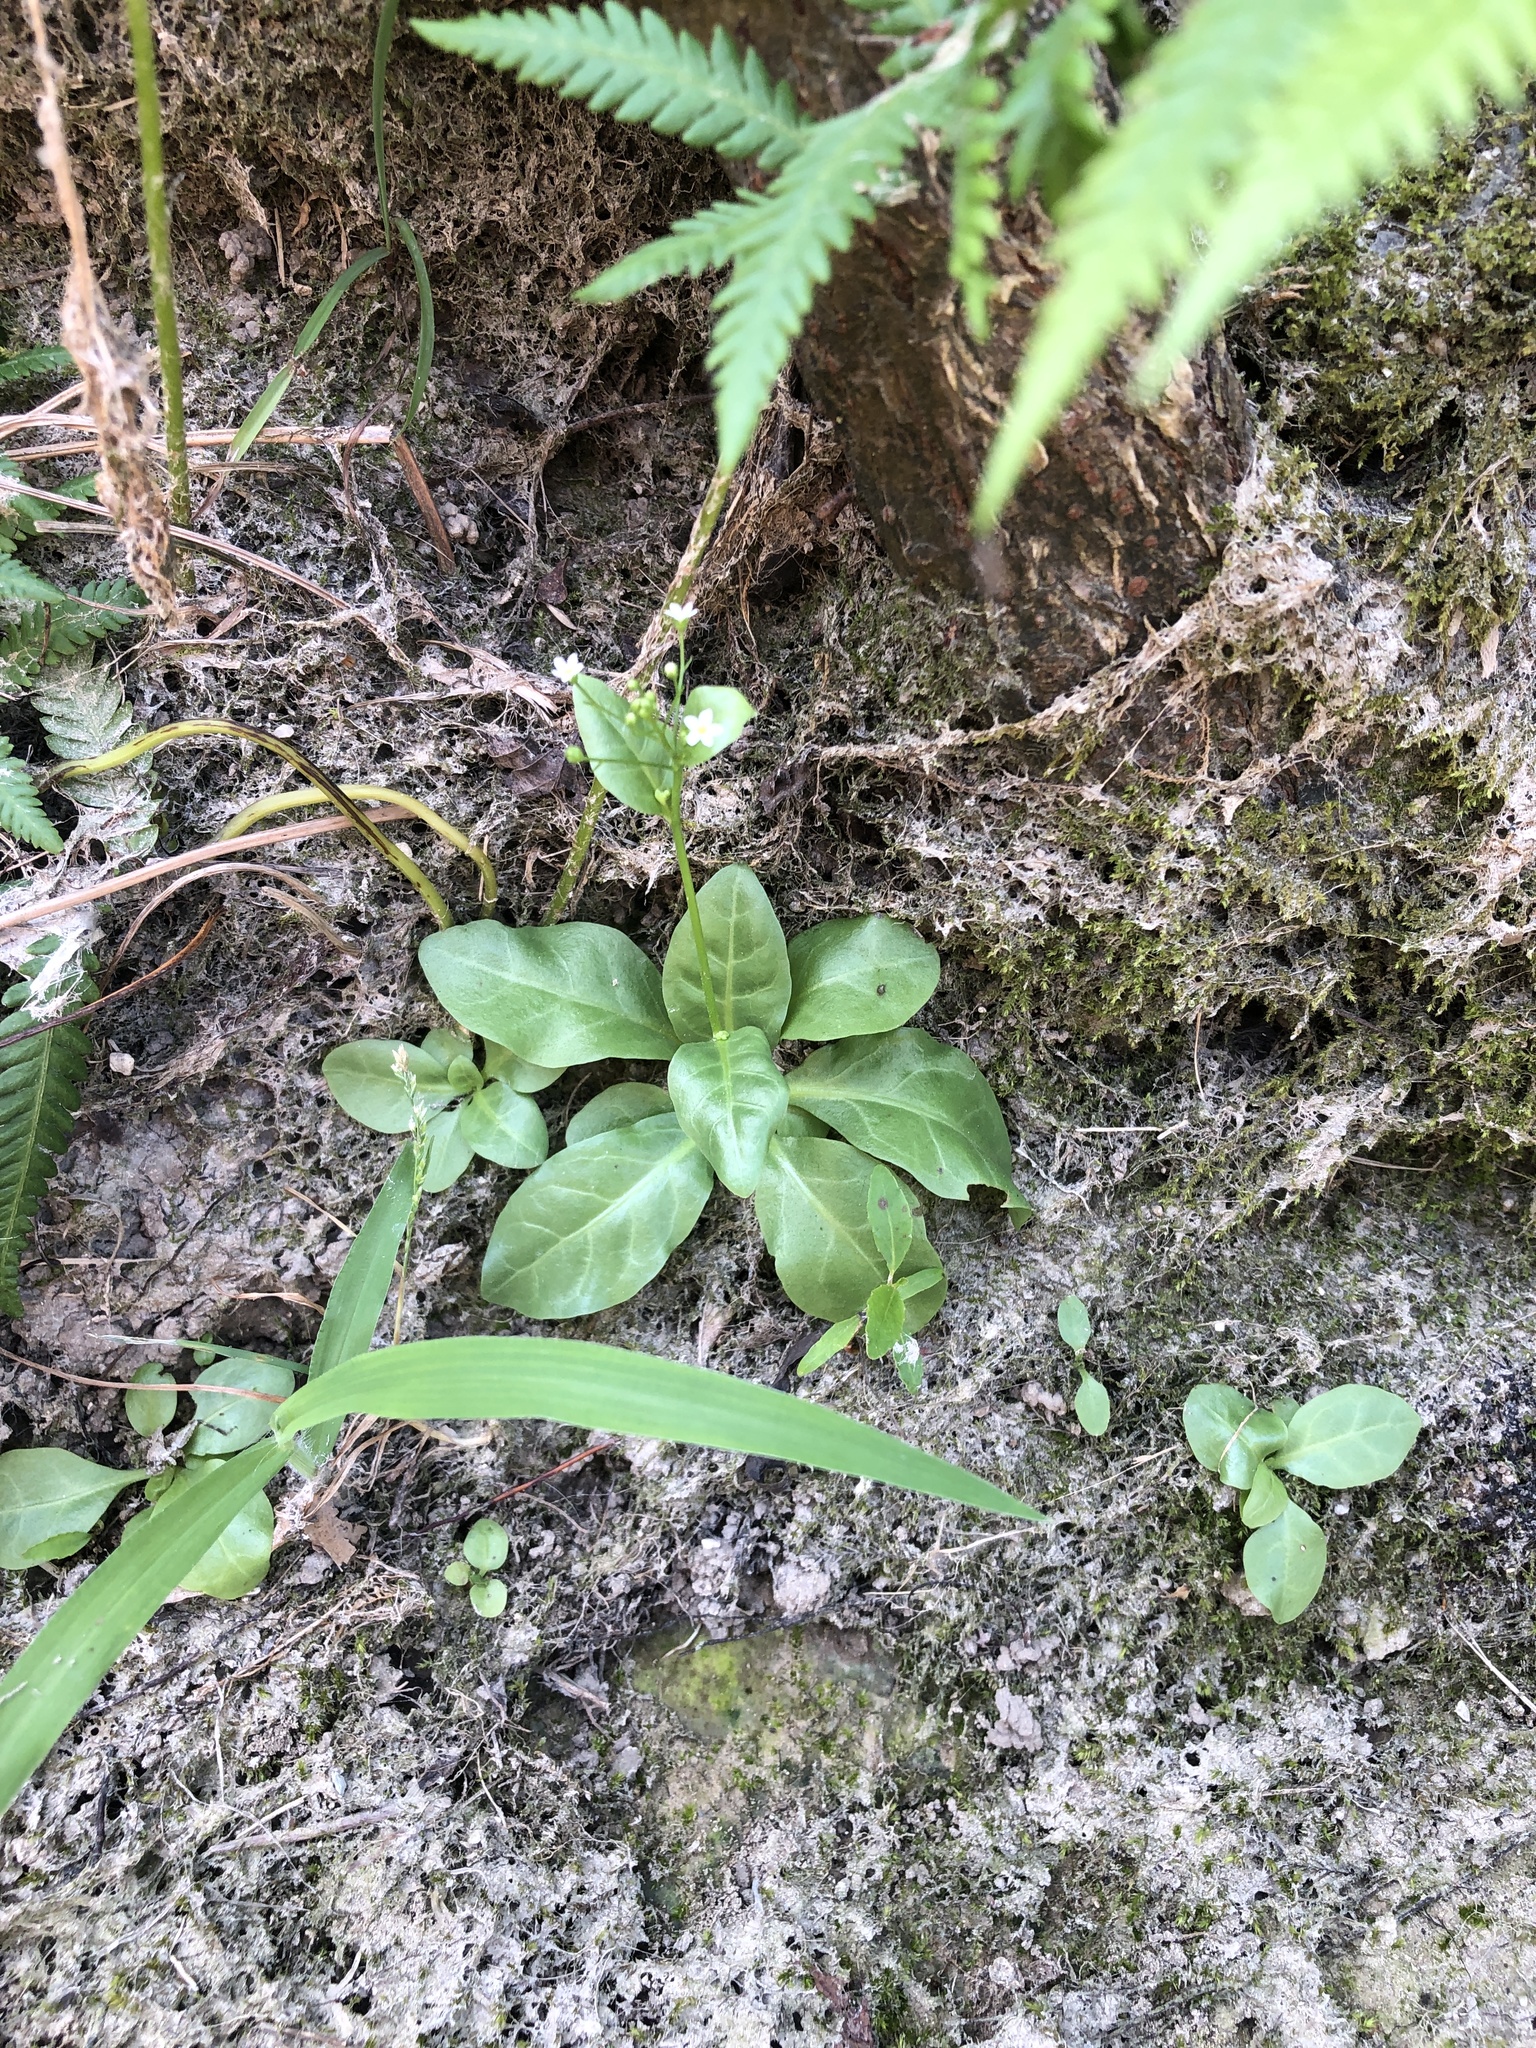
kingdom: Plantae
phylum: Tracheophyta
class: Magnoliopsida
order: Ericales
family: Primulaceae
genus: Samolus
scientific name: Samolus parviflorus
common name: False water pimpernel
